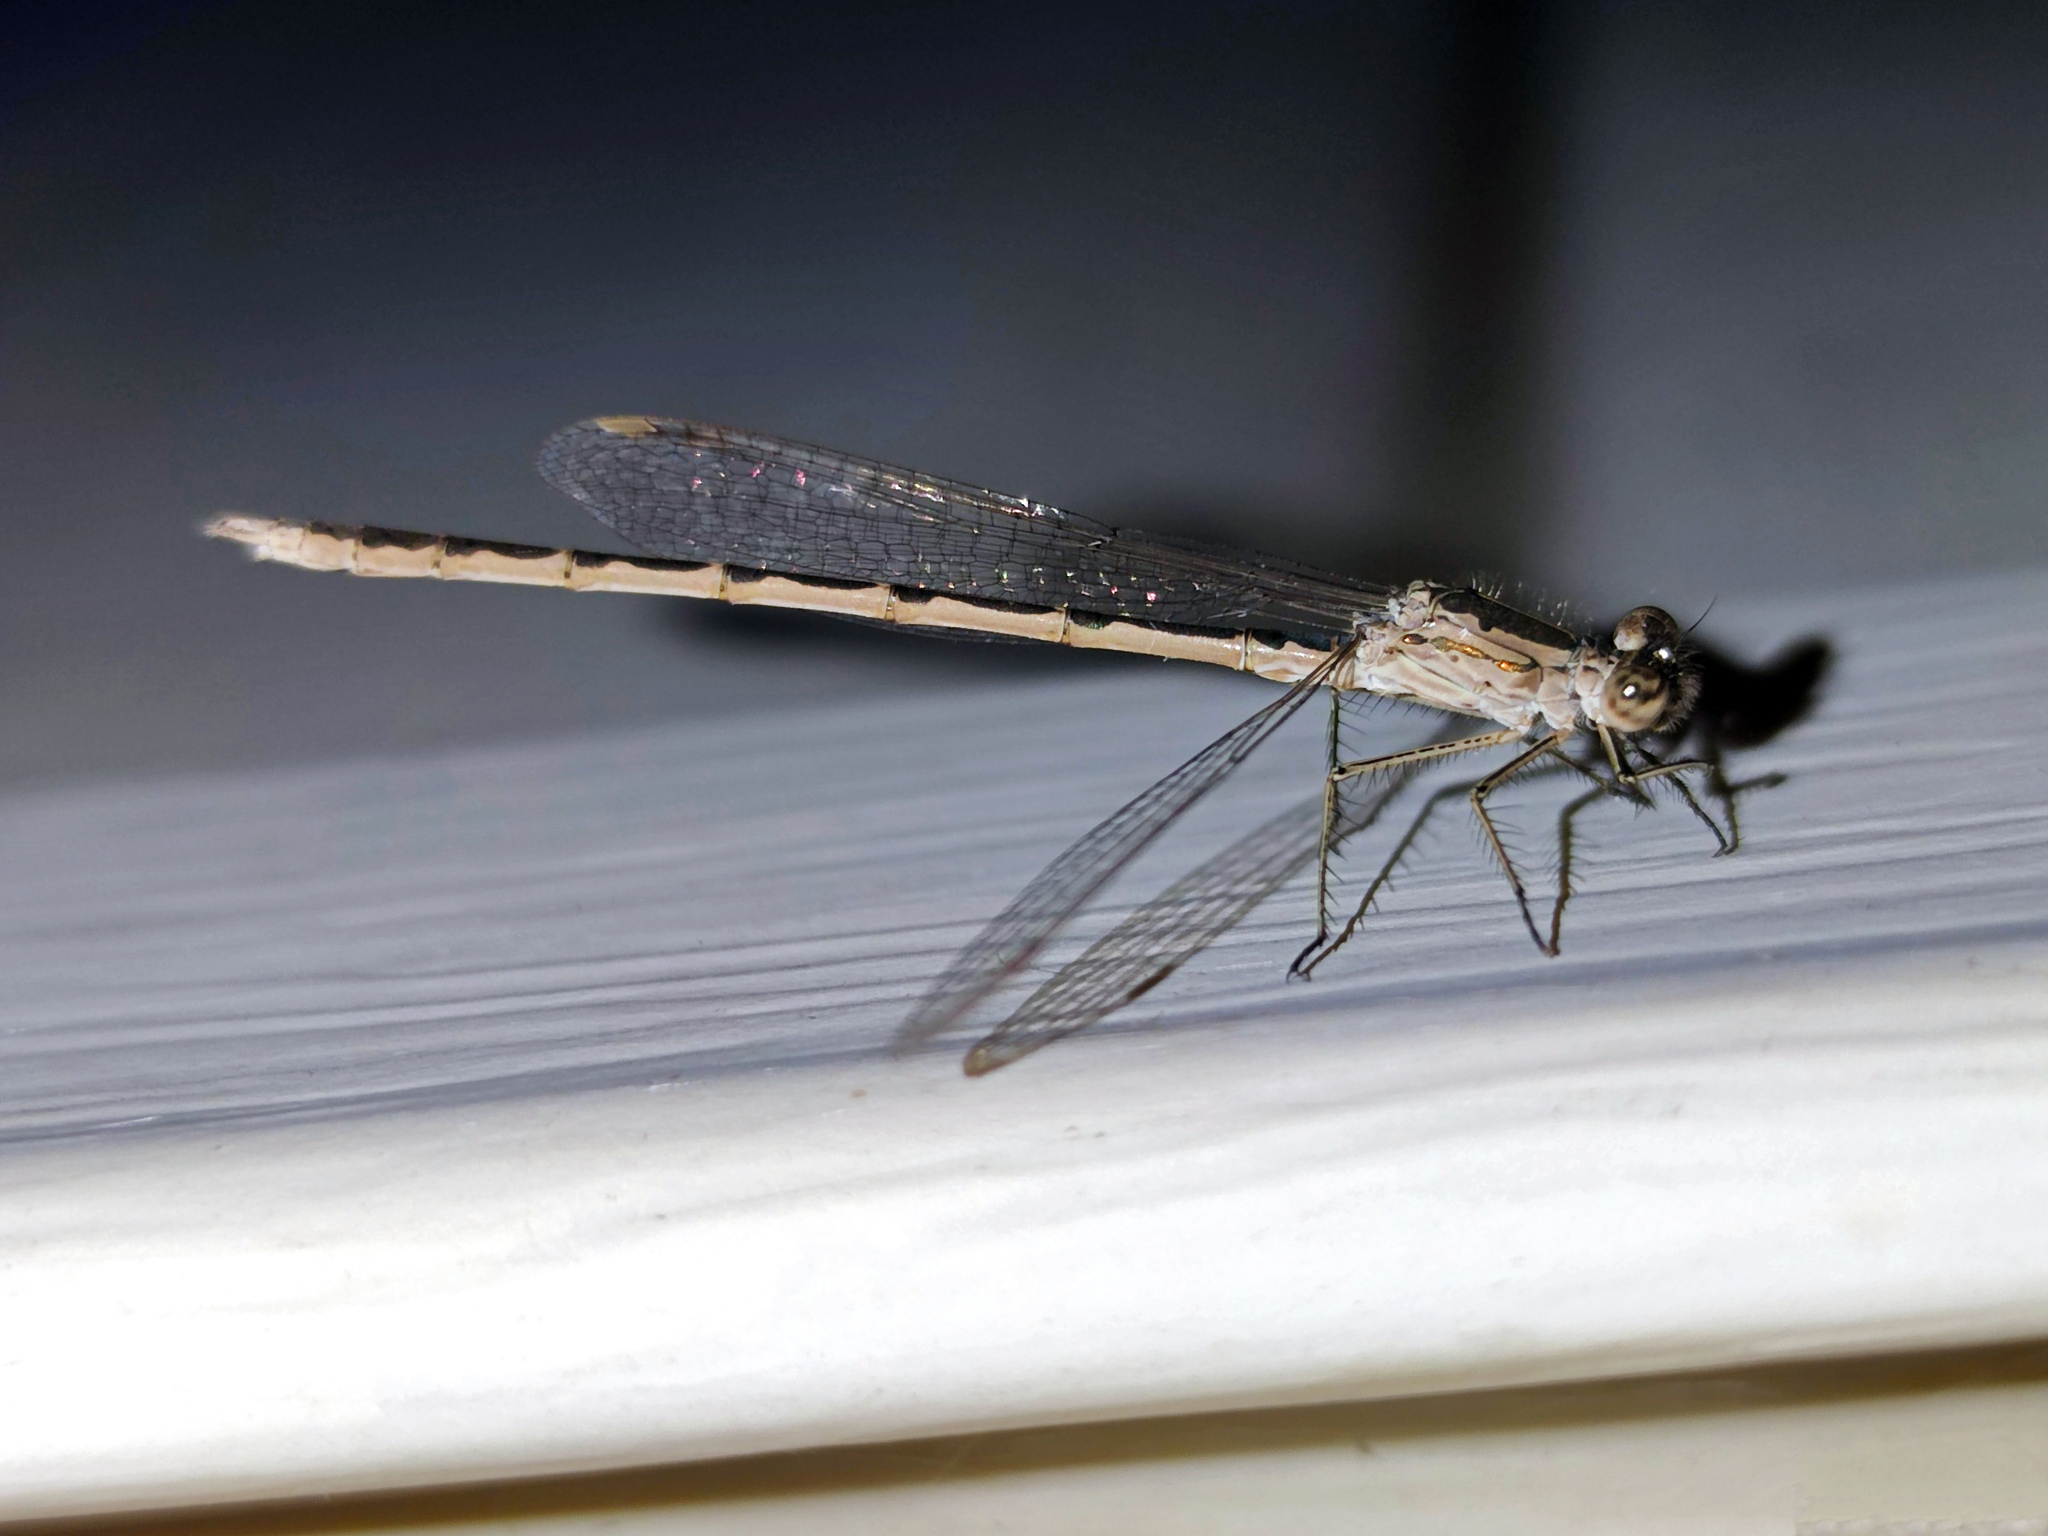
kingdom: Animalia
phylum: Arthropoda
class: Insecta
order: Odonata
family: Lestidae
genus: Sympecma
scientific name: Sympecma paedisca
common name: Siberian winter damsel
